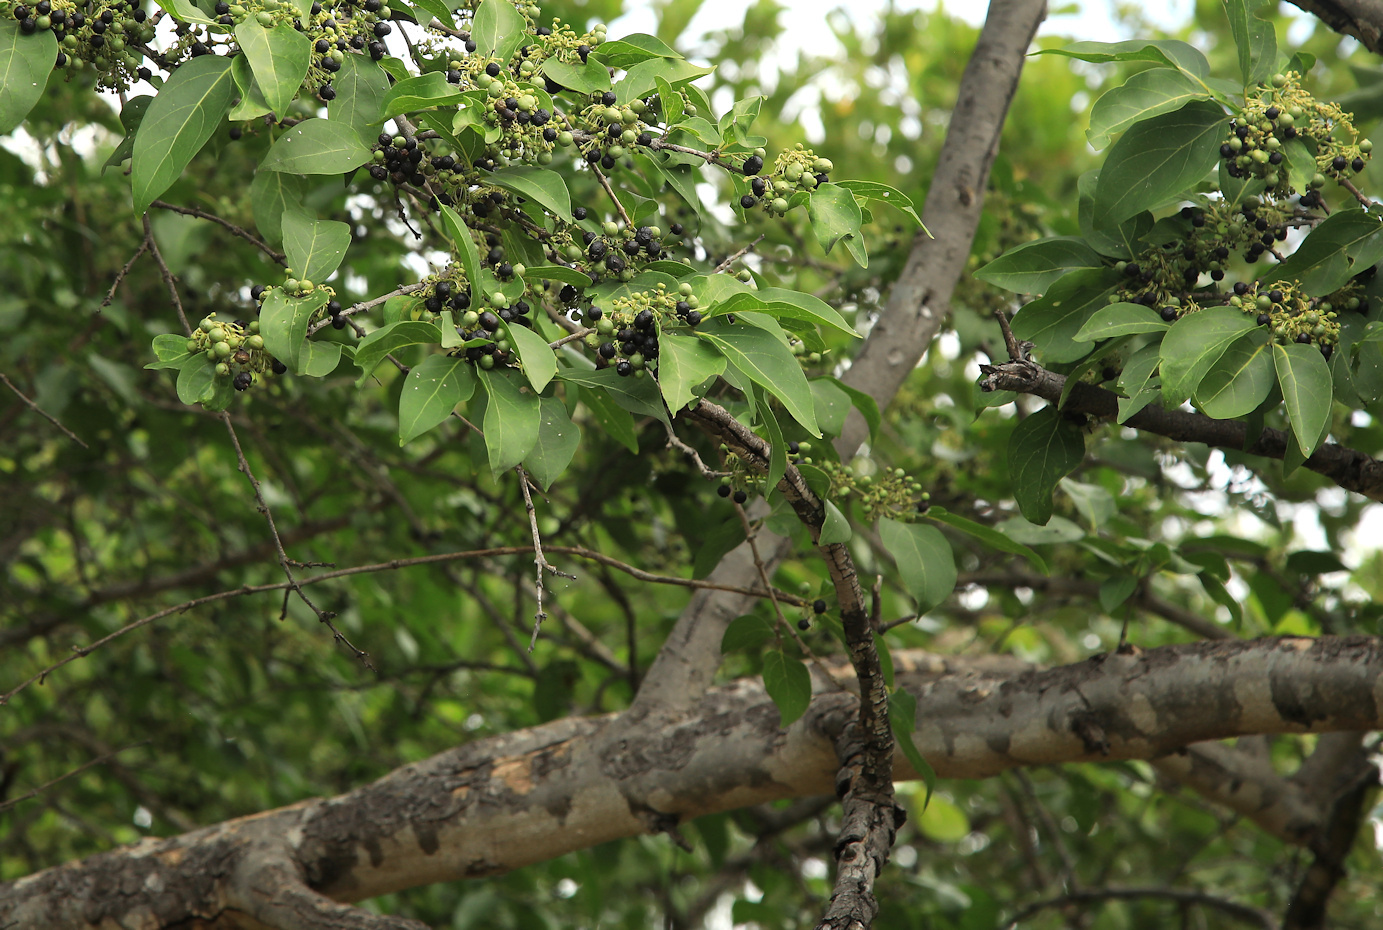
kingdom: Plantae
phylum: Tracheophyta
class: Magnoliopsida
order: Gentianales
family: Rubiaceae
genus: Psydrax
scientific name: Psydrax lividus
